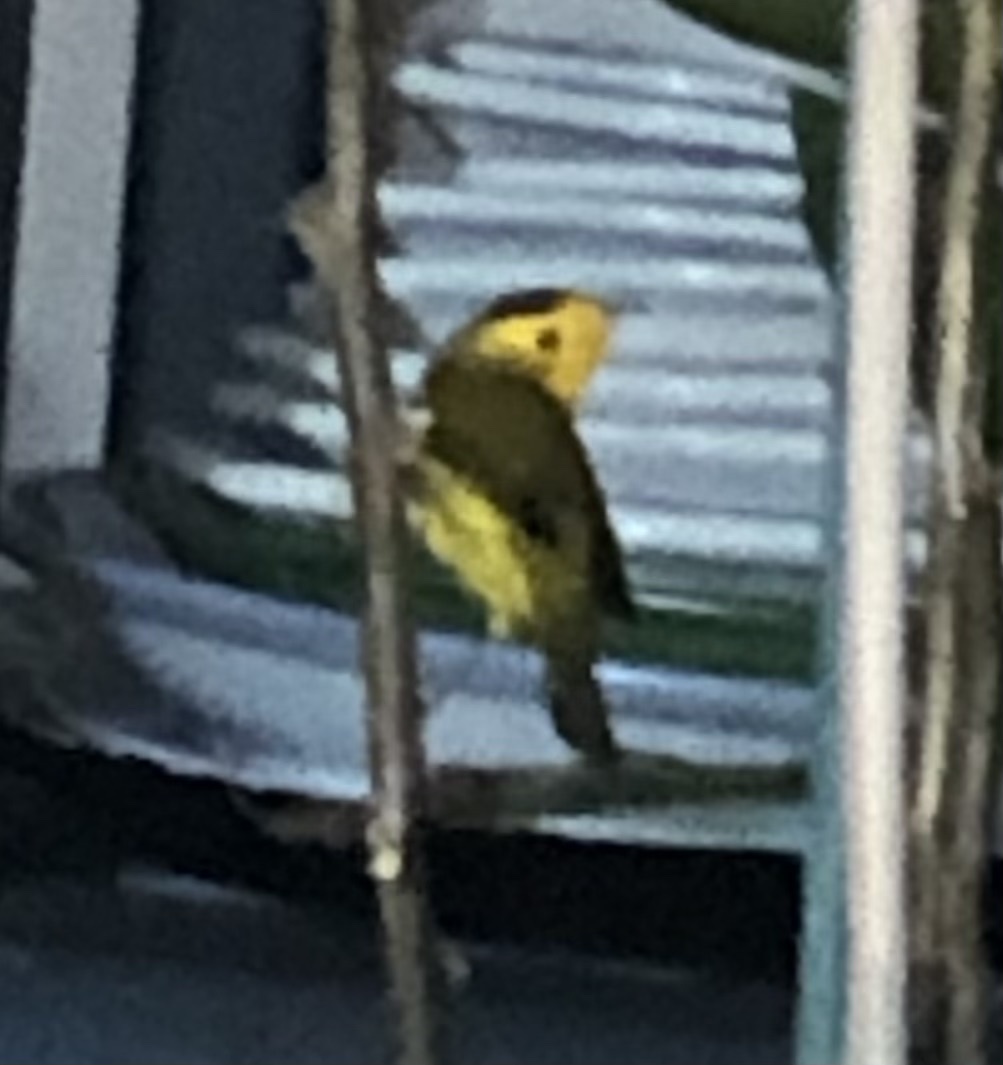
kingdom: Animalia
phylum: Chordata
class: Aves
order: Passeriformes
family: Parulidae
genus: Cardellina
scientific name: Cardellina pusilla
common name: Wilson's warbler
